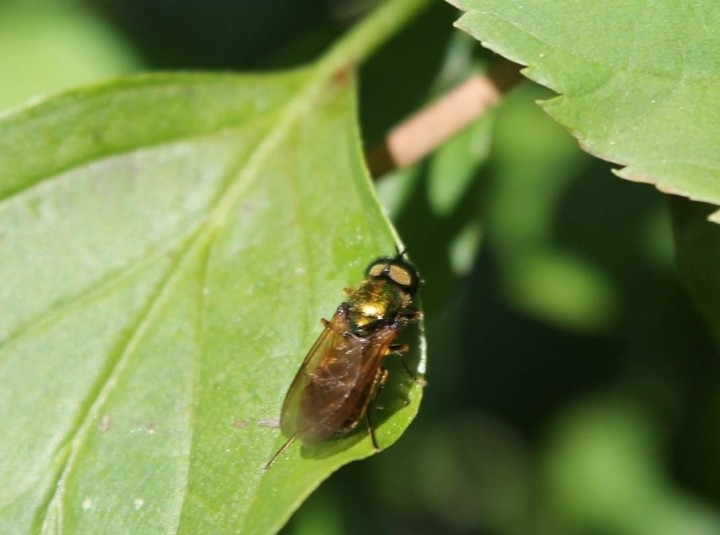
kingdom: Animalia
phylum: Arthropoda
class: Insecta
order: Diptera
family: Stratiomyidae
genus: Chloromyia
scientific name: Chloromyia formosa
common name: Soldier fly
